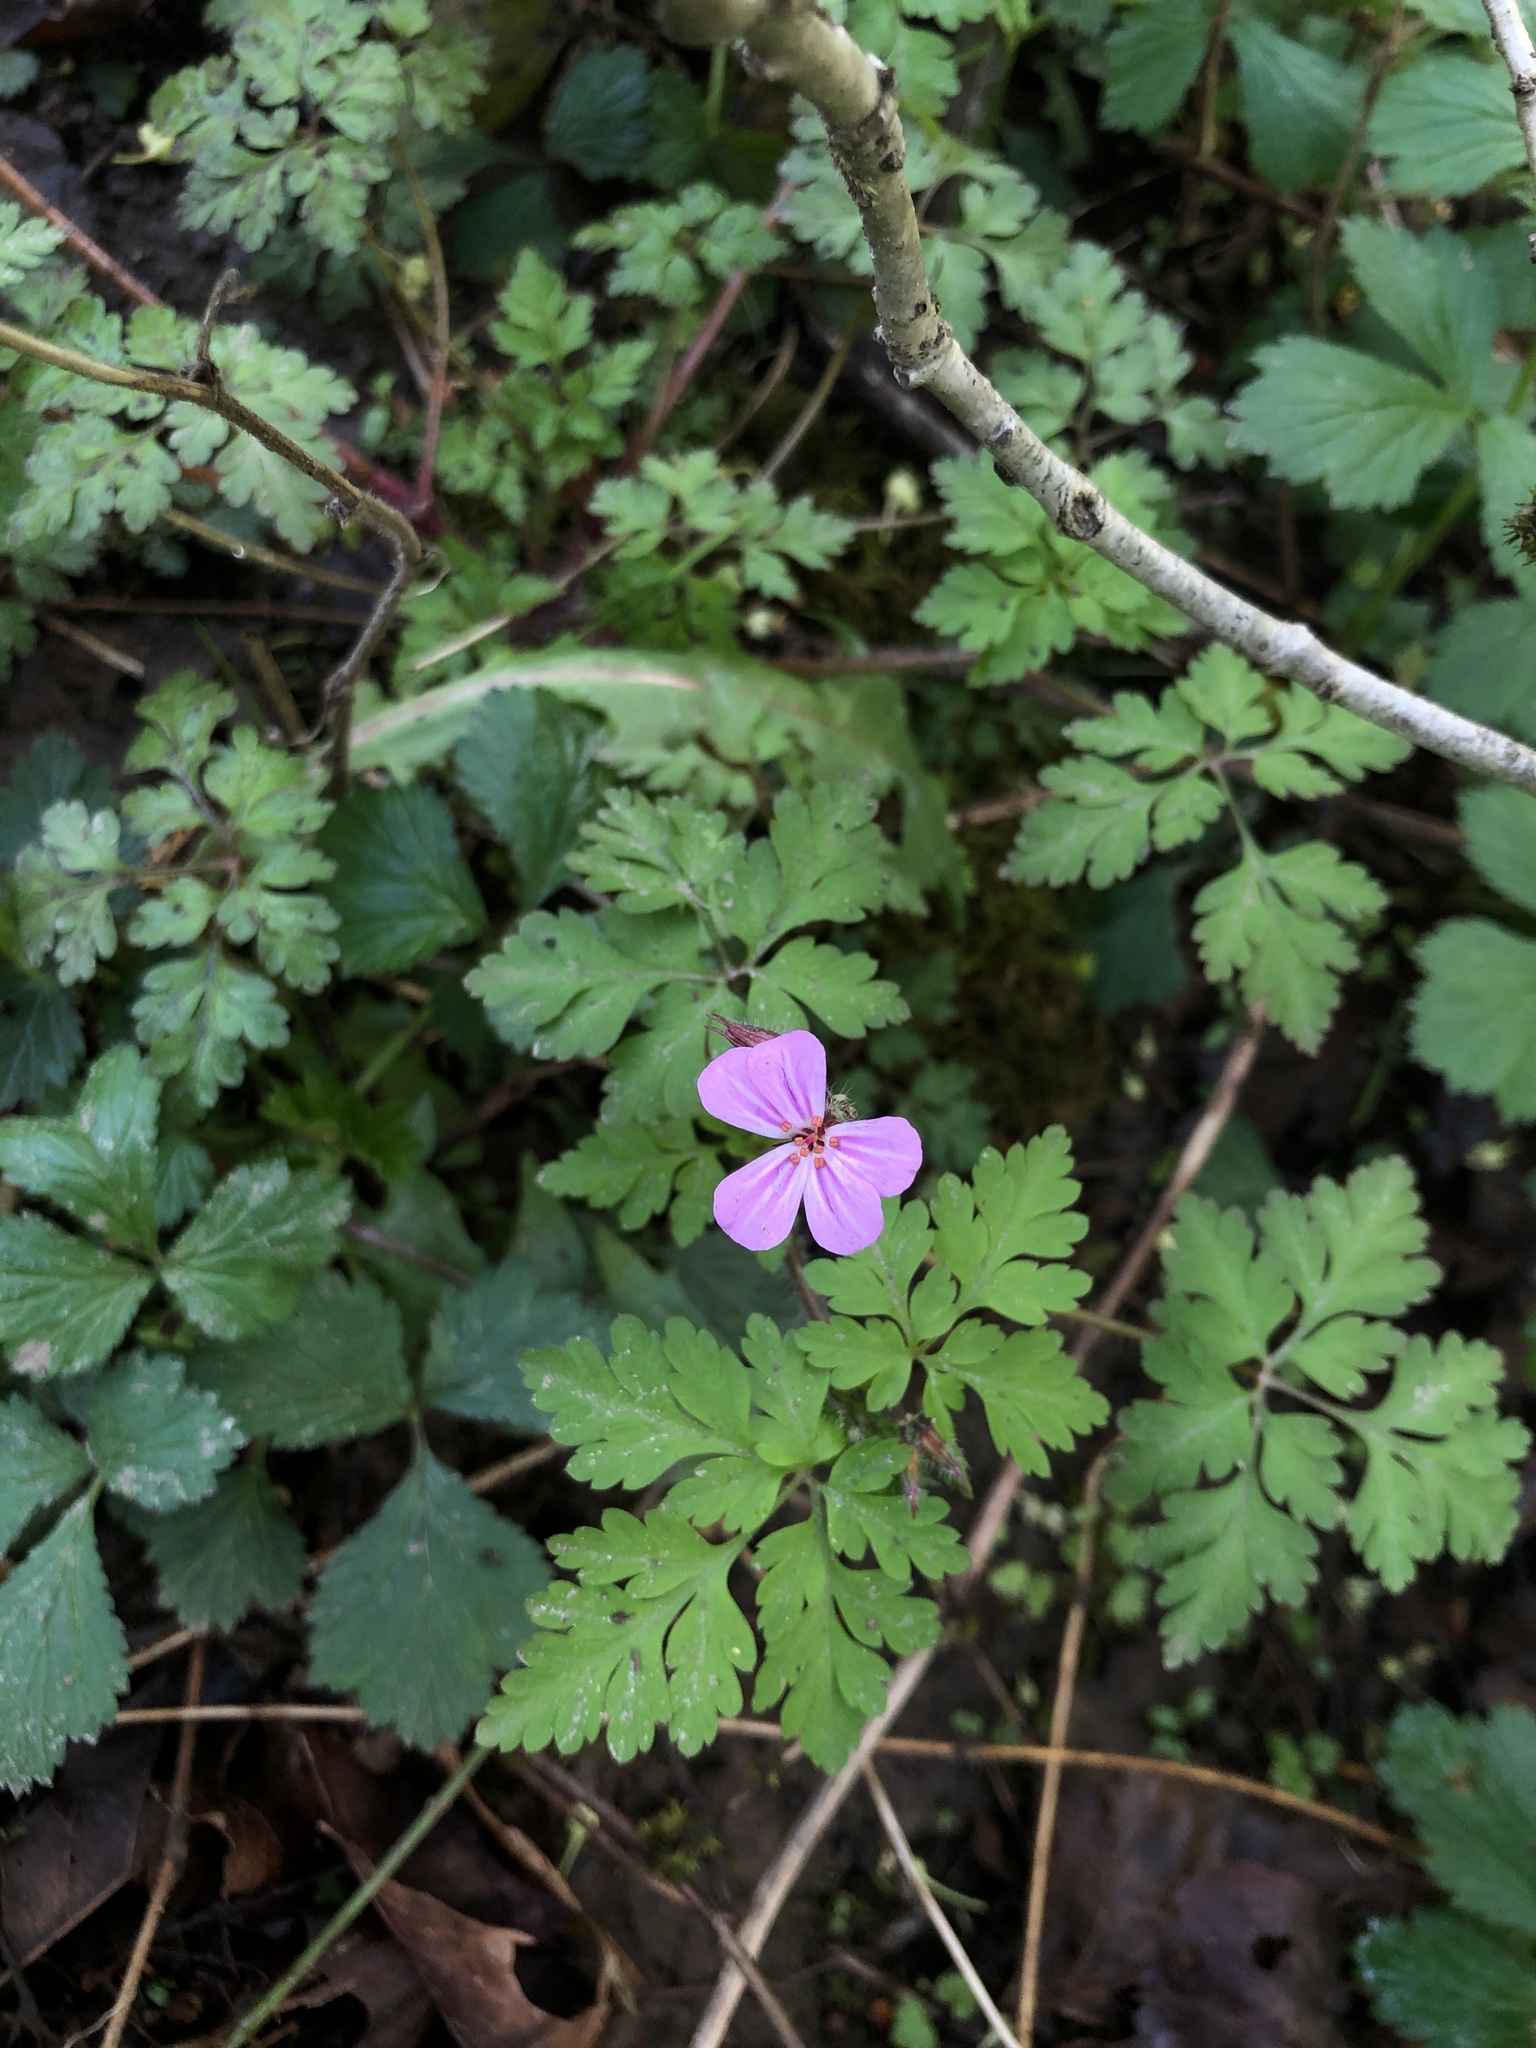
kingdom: Plantae
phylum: Tracheophyta
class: Magnoliopsida
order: Geraniales
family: Geraniaceae
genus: Geranium
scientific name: Geranium robertianum
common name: Herb-robert
